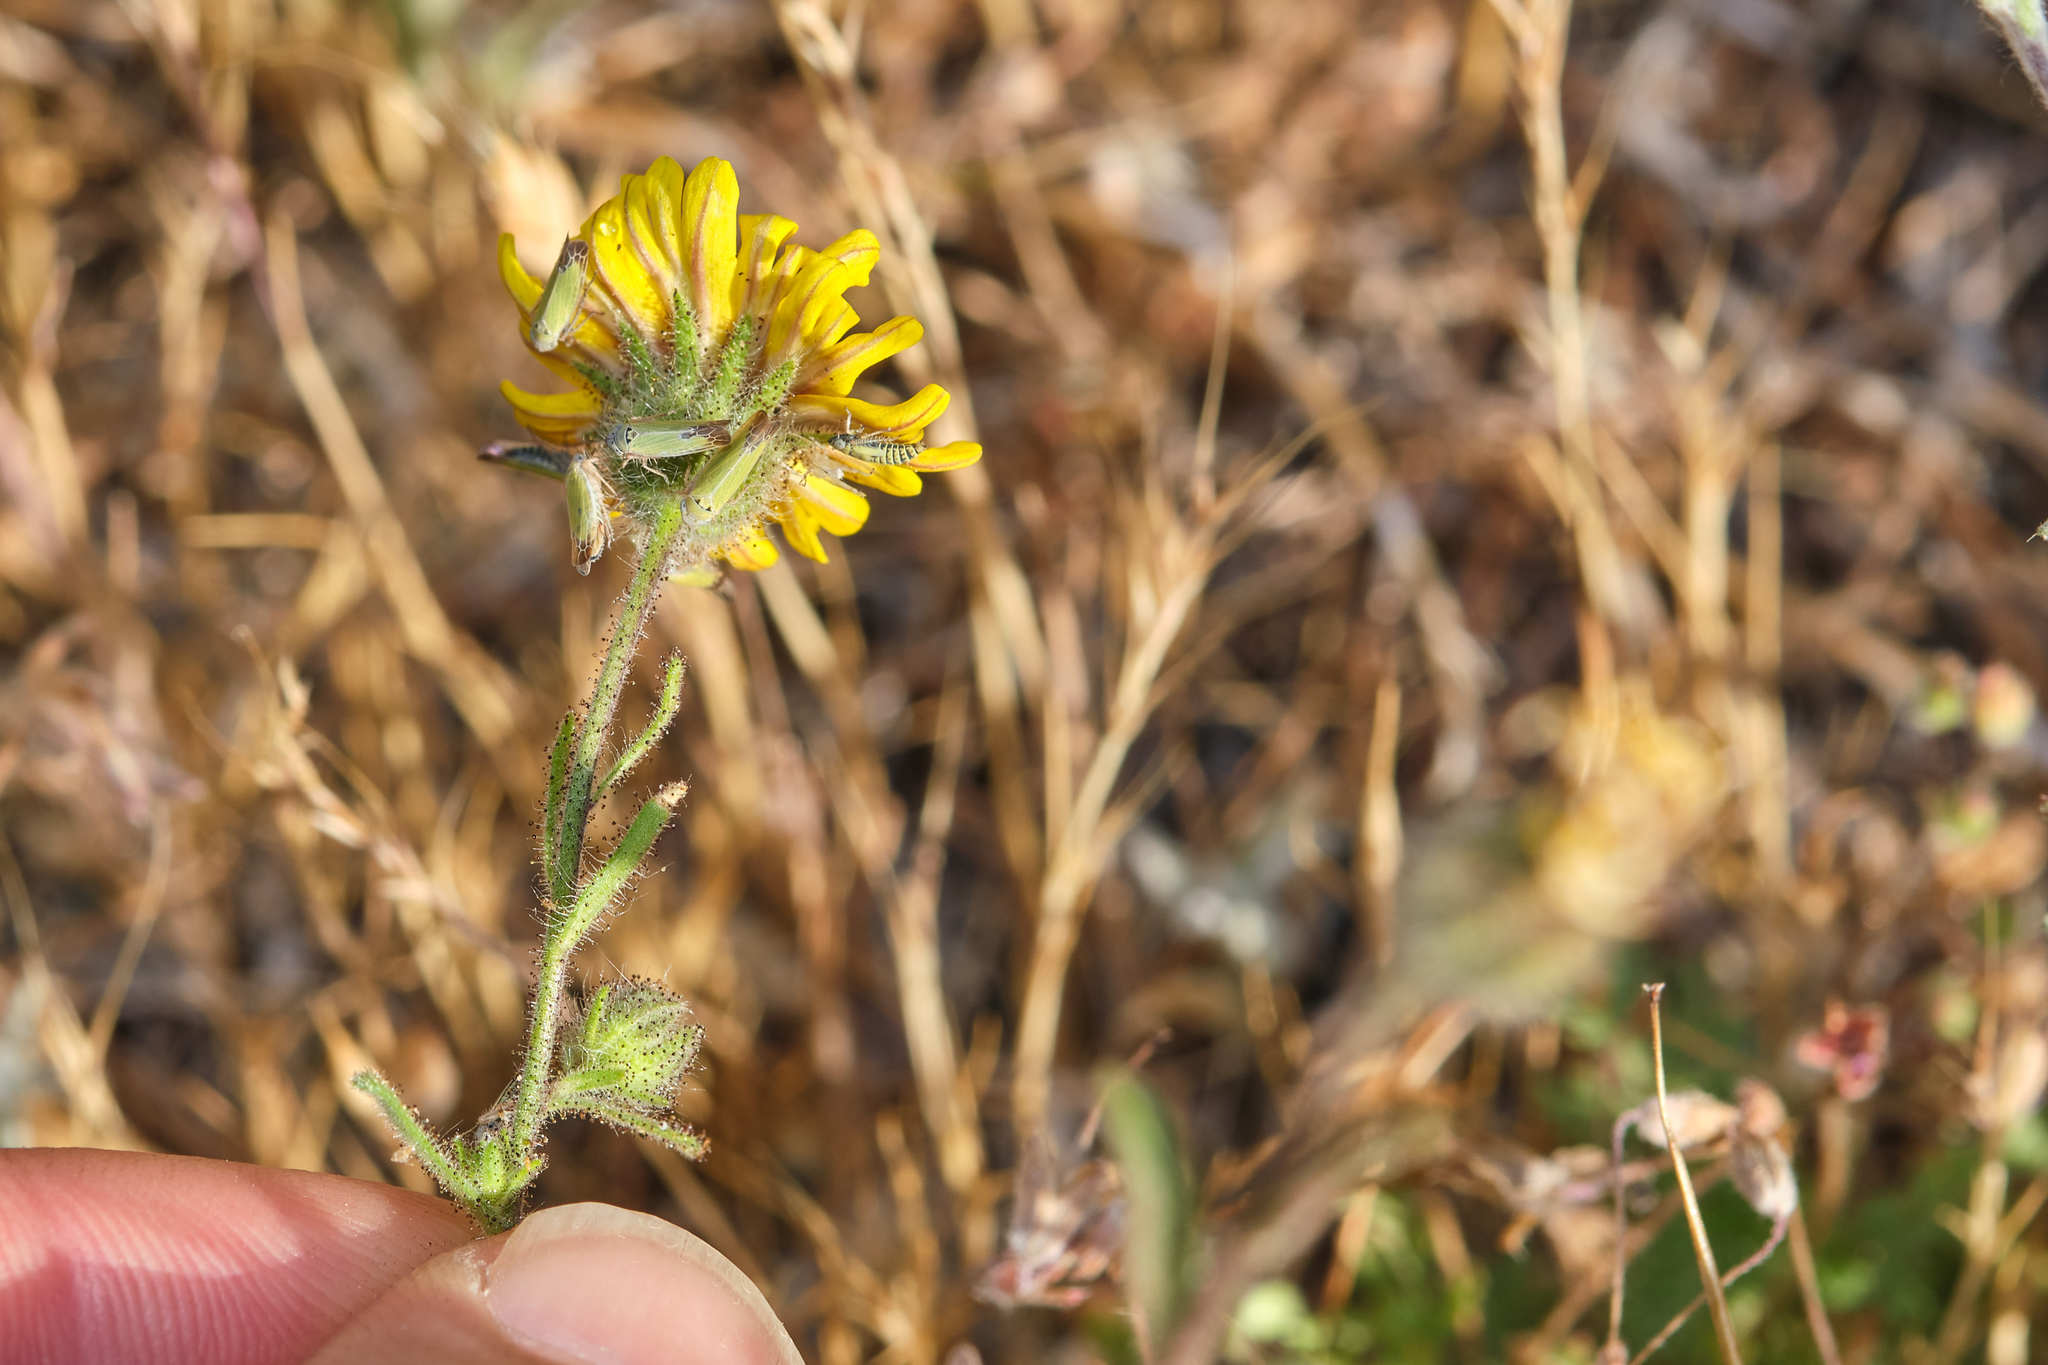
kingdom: Plantae
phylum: Tracheophyta
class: Magnoliopsida
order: Asterales
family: Asteraceae
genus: Madia
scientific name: Madia elegans
